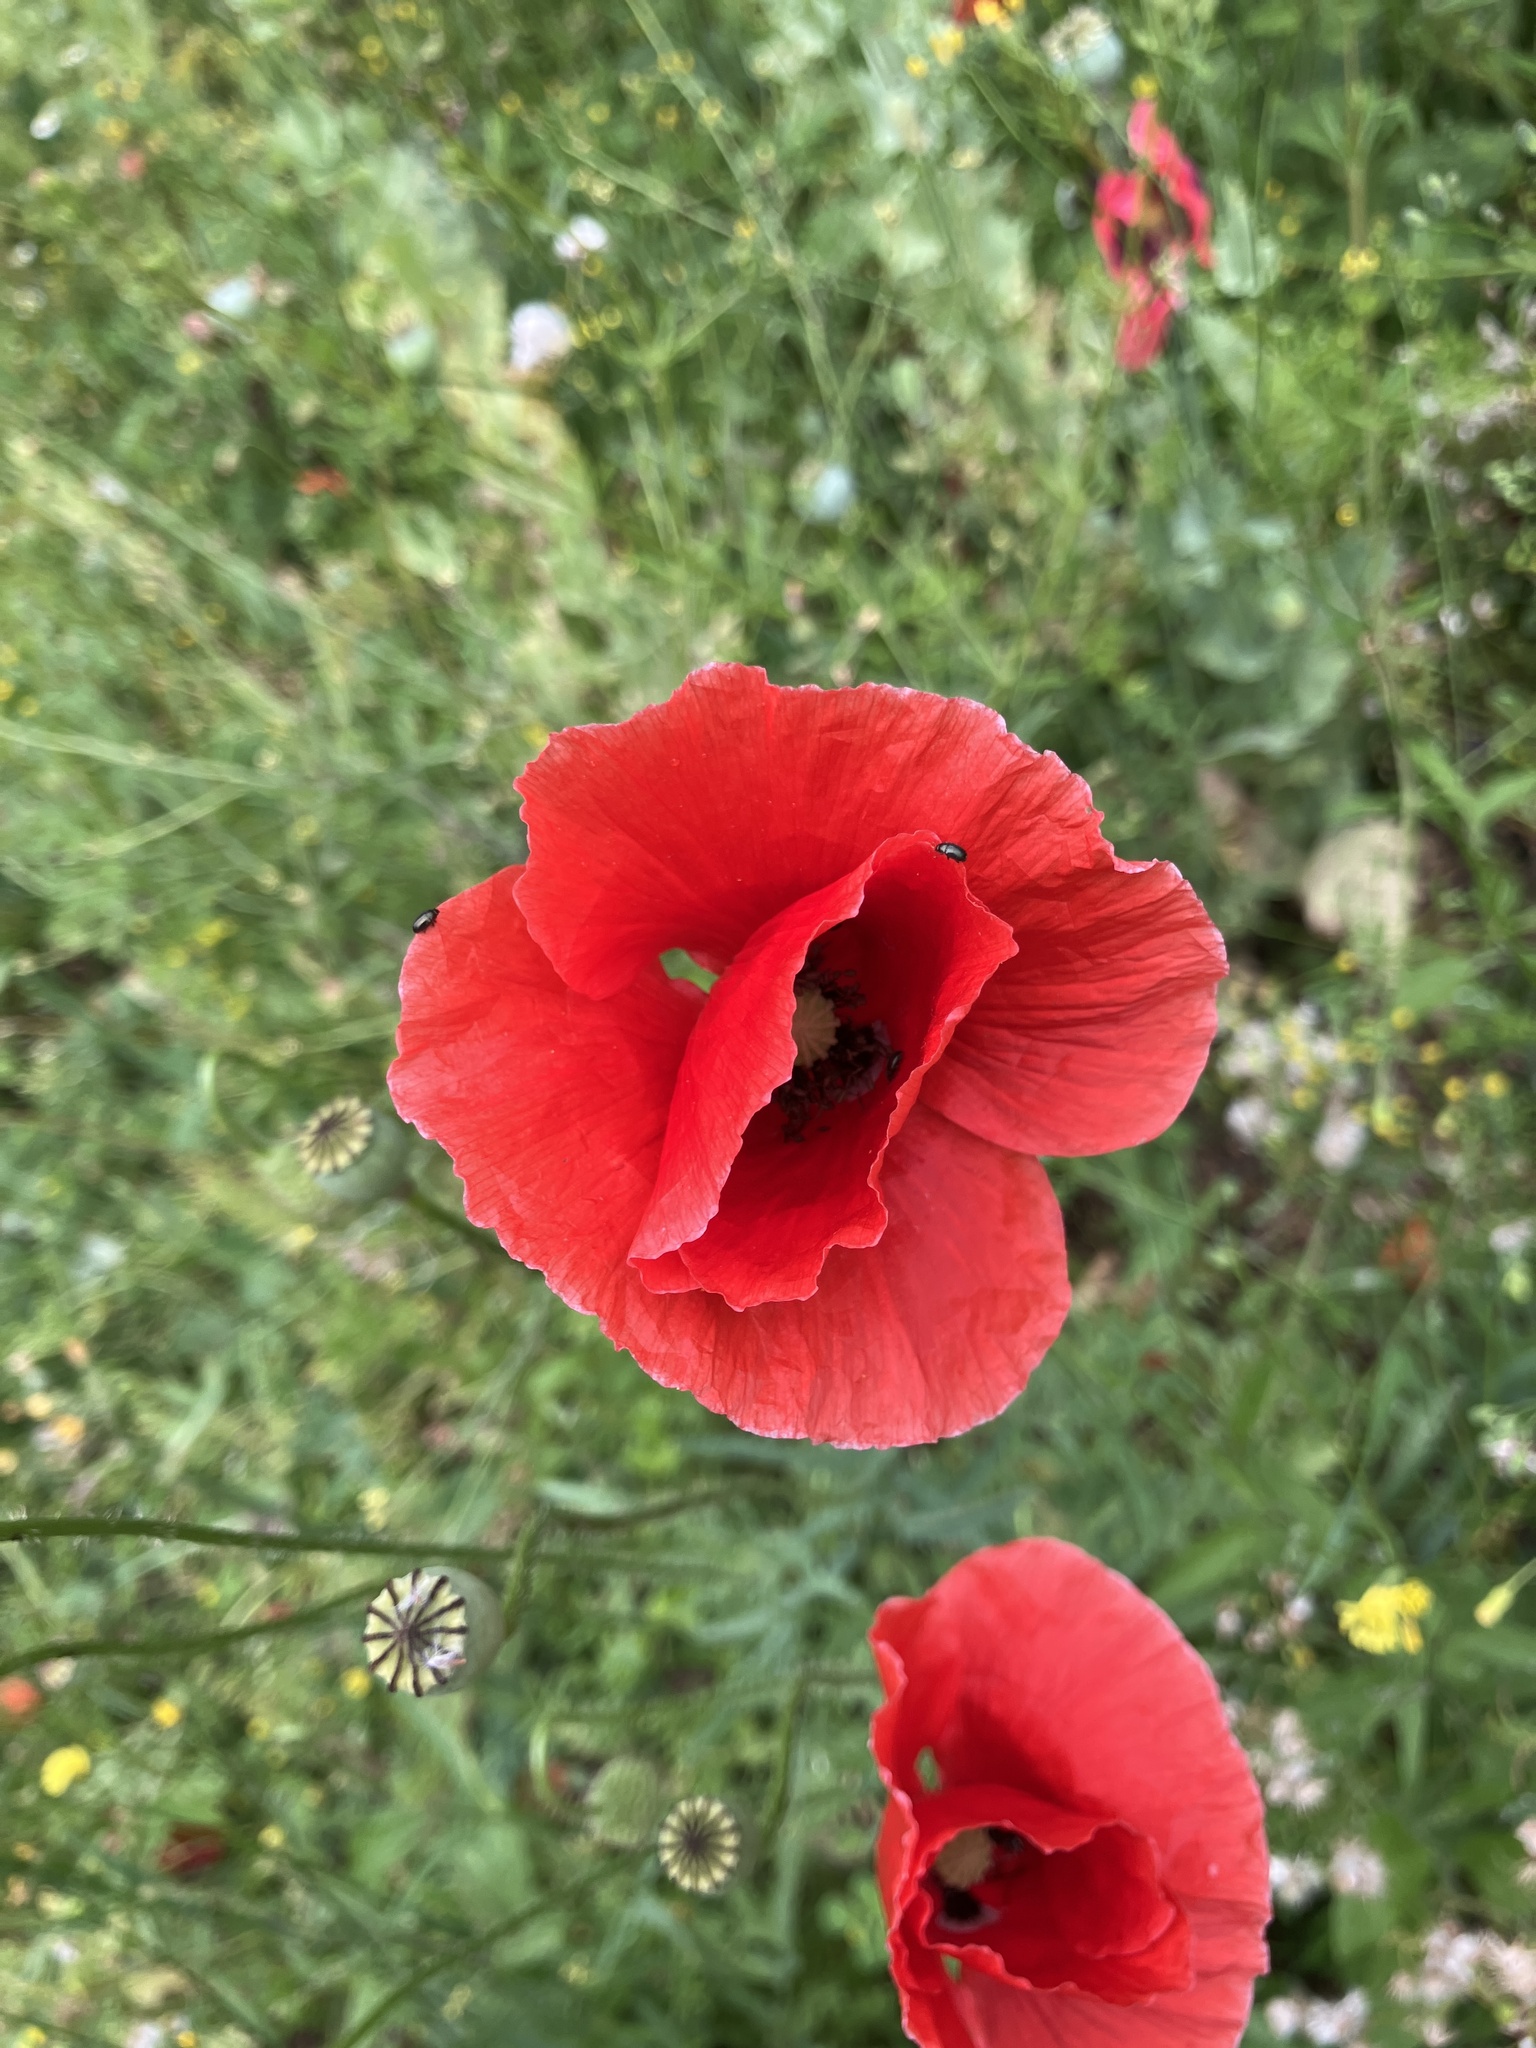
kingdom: Plantae
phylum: Tracheophyta
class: Magnoliopsida
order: Ranunculales
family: Papaveraceae
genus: Papaver
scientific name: Papaver rhoeas
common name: Corn poppy
